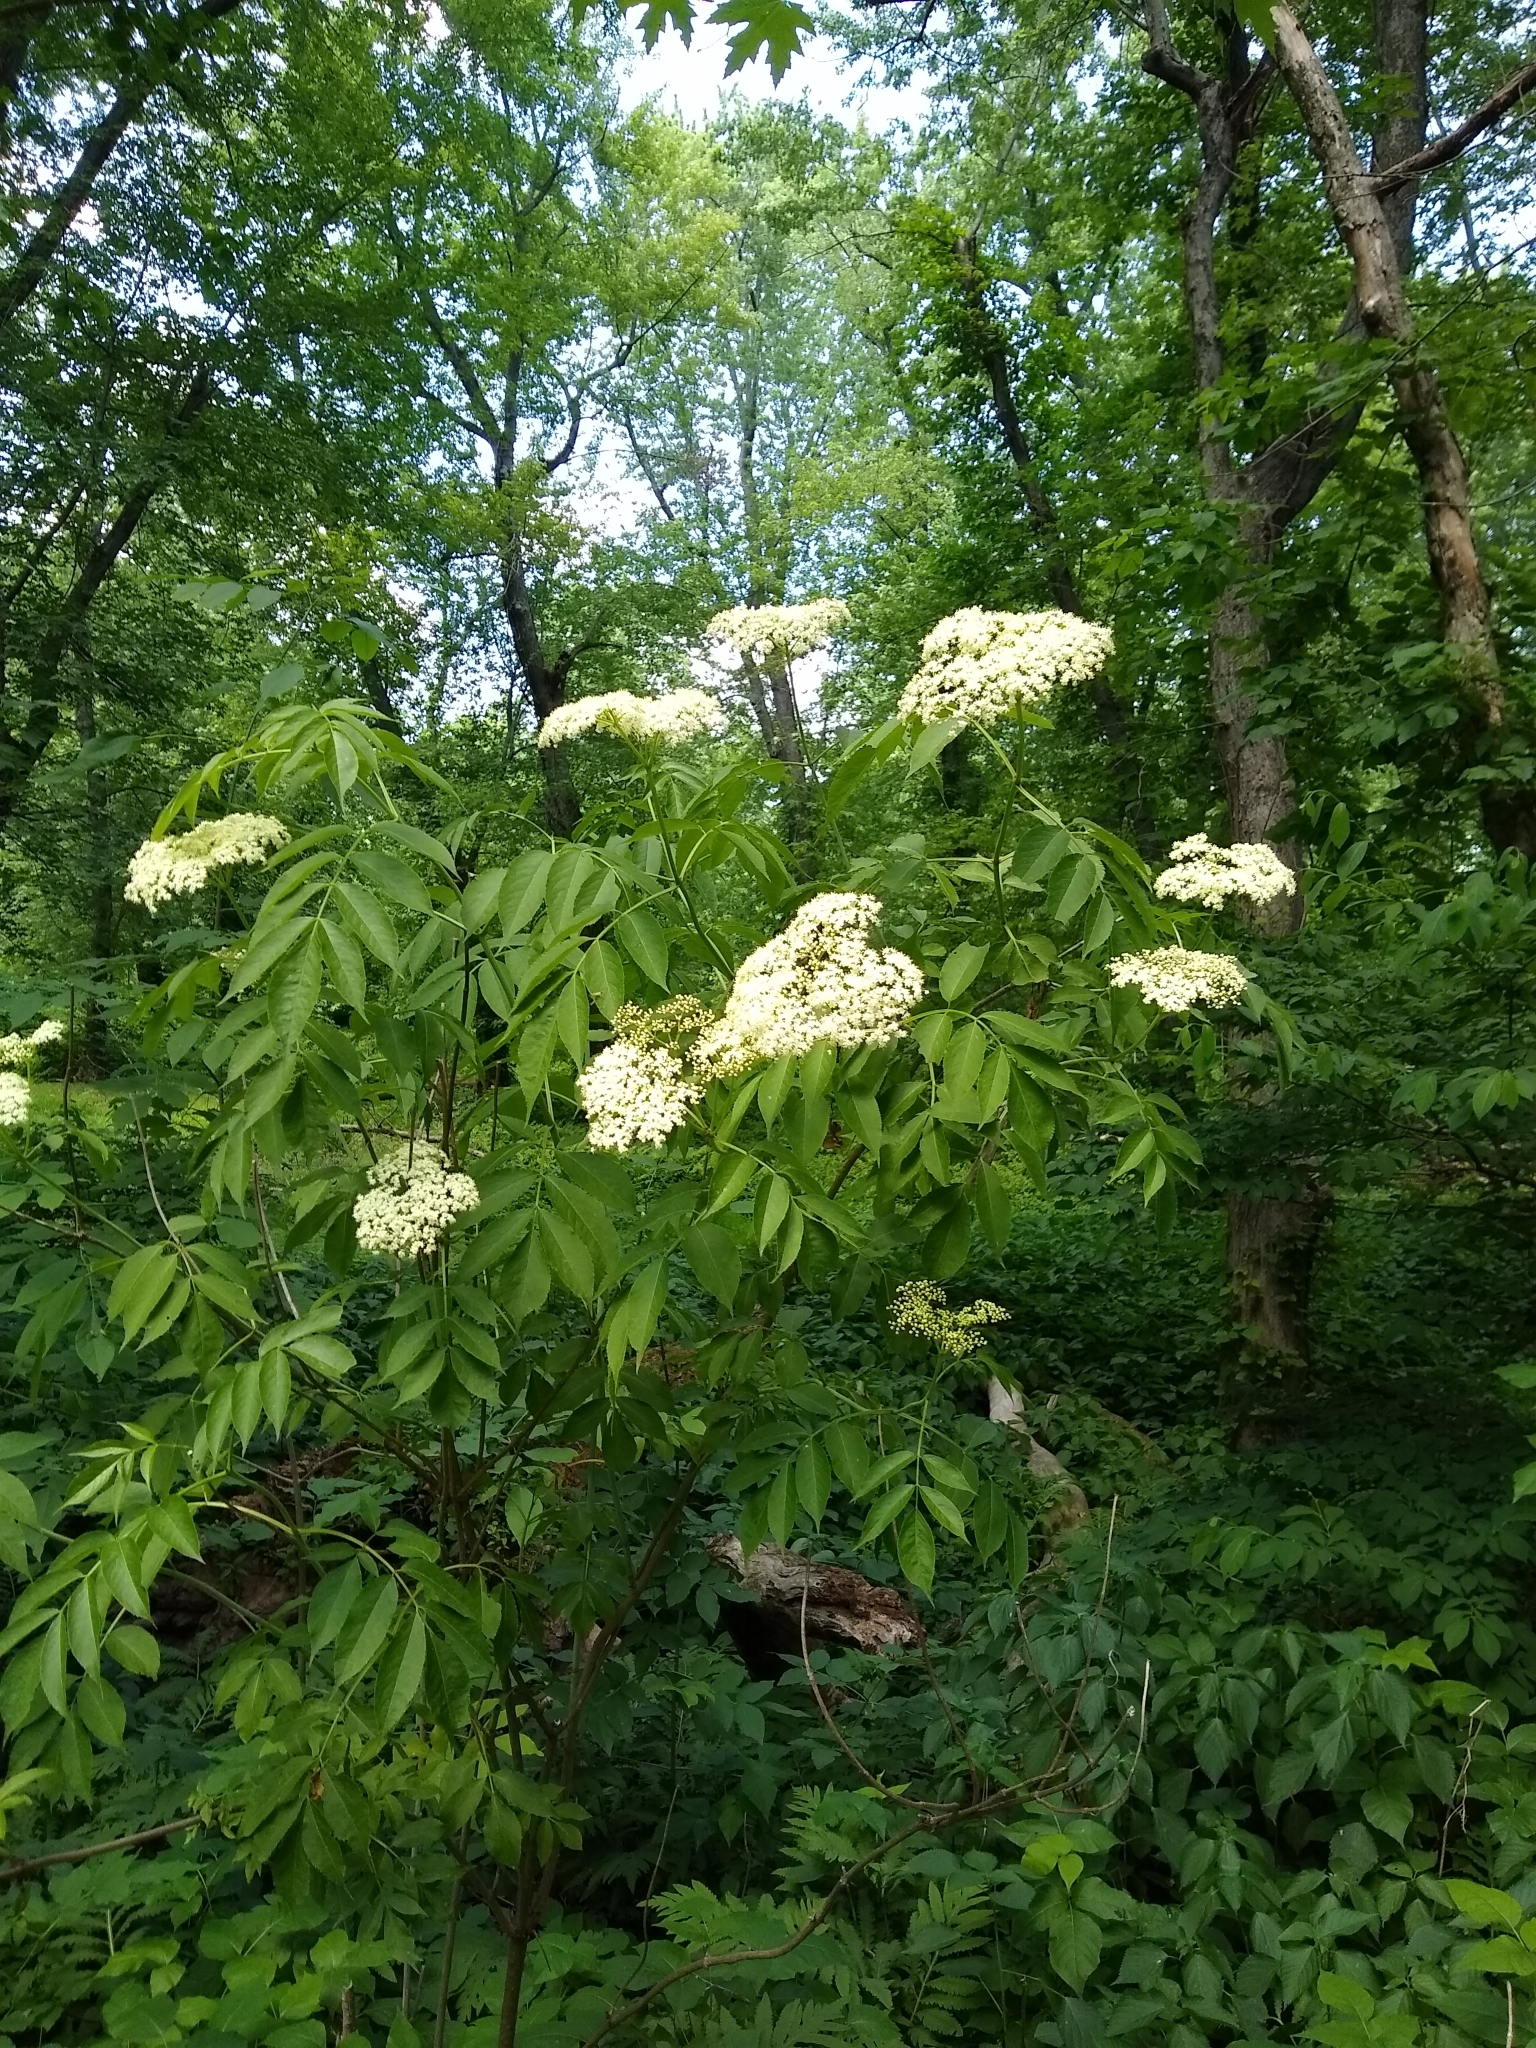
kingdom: Plantae
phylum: Tracheophyta
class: Magnoliopsida
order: Dipsacales
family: Viburnaceae
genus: Sambucus
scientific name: Sambucus canadensis
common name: American elder
